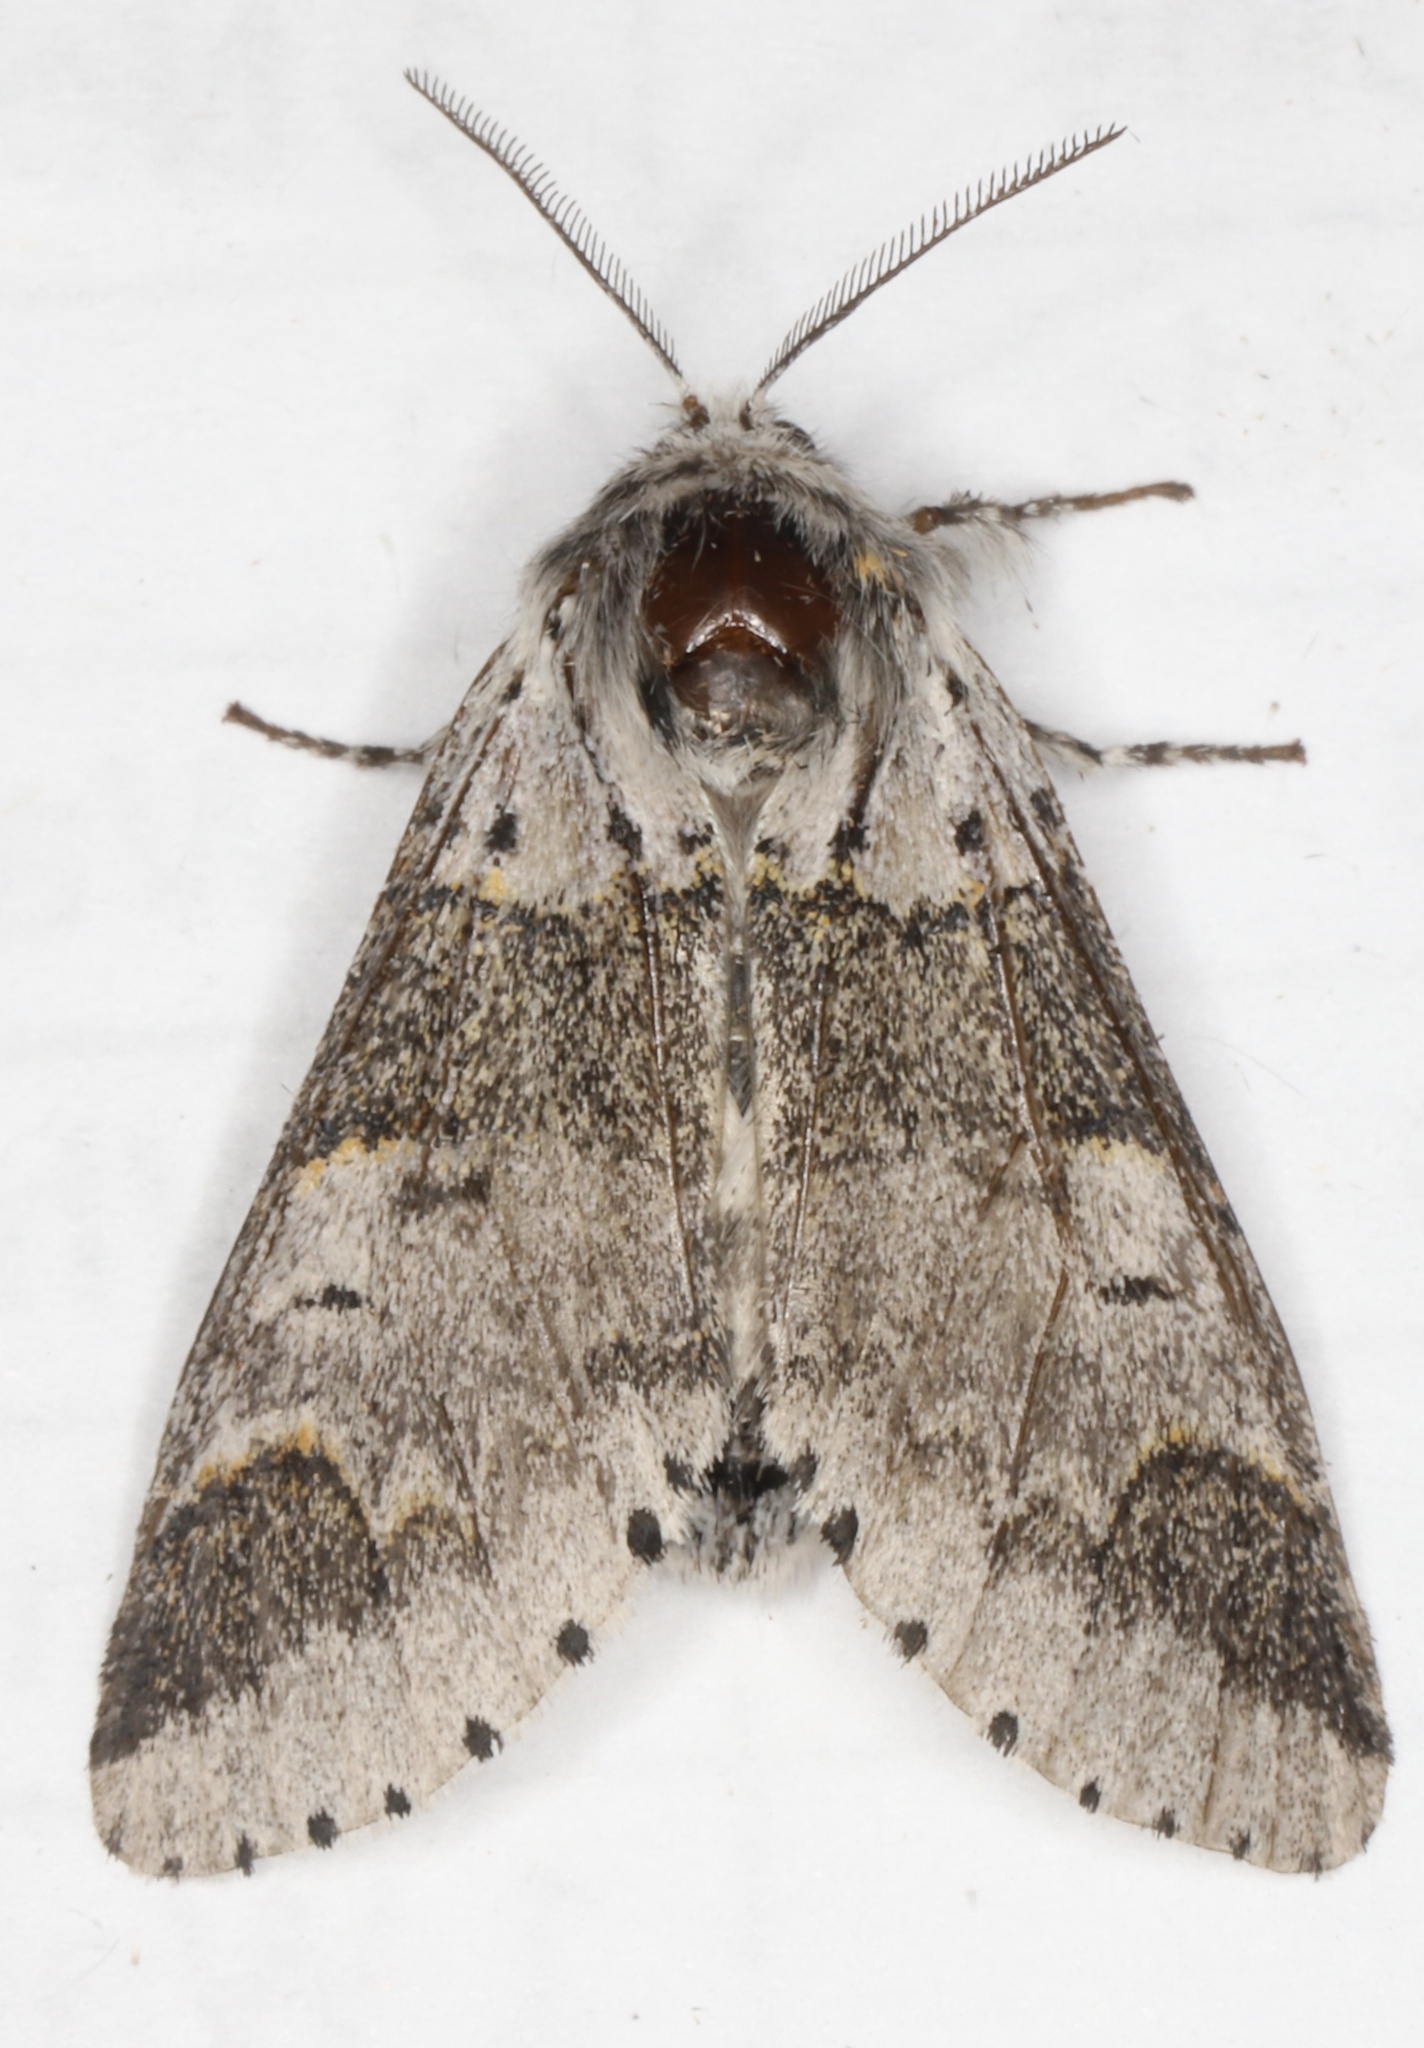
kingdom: Animalia
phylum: Arthropoda
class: Insecta
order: Lepidoptera
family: Notodontidae
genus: Furcula
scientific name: Furcula occidentalis
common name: Western furcula moth
